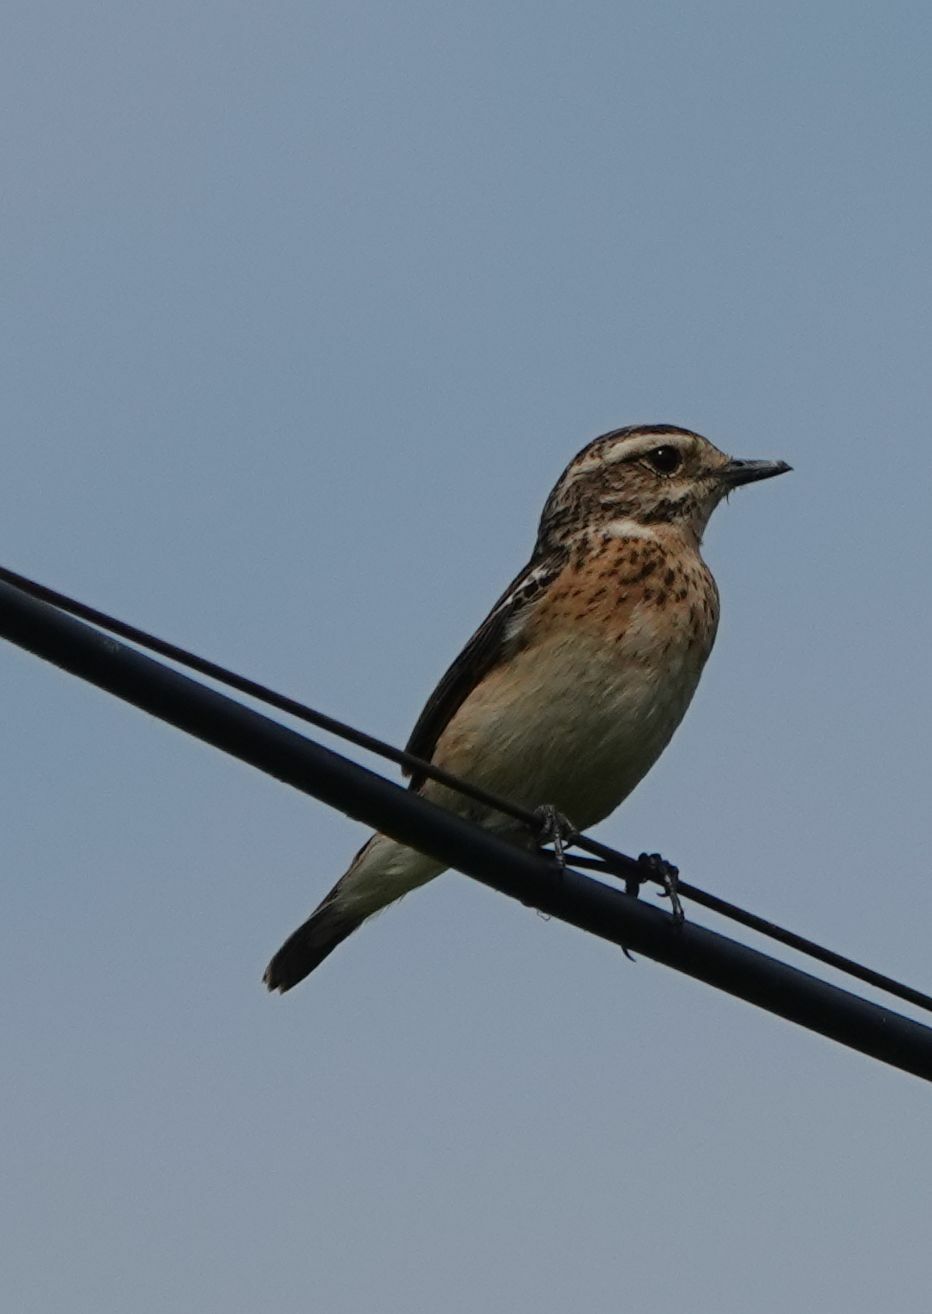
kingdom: Animalia
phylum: Chordata
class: Aves
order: Passeriformes
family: Muscicapidae
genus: Saxicola
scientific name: Saxicola rubetra
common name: Whinchat
